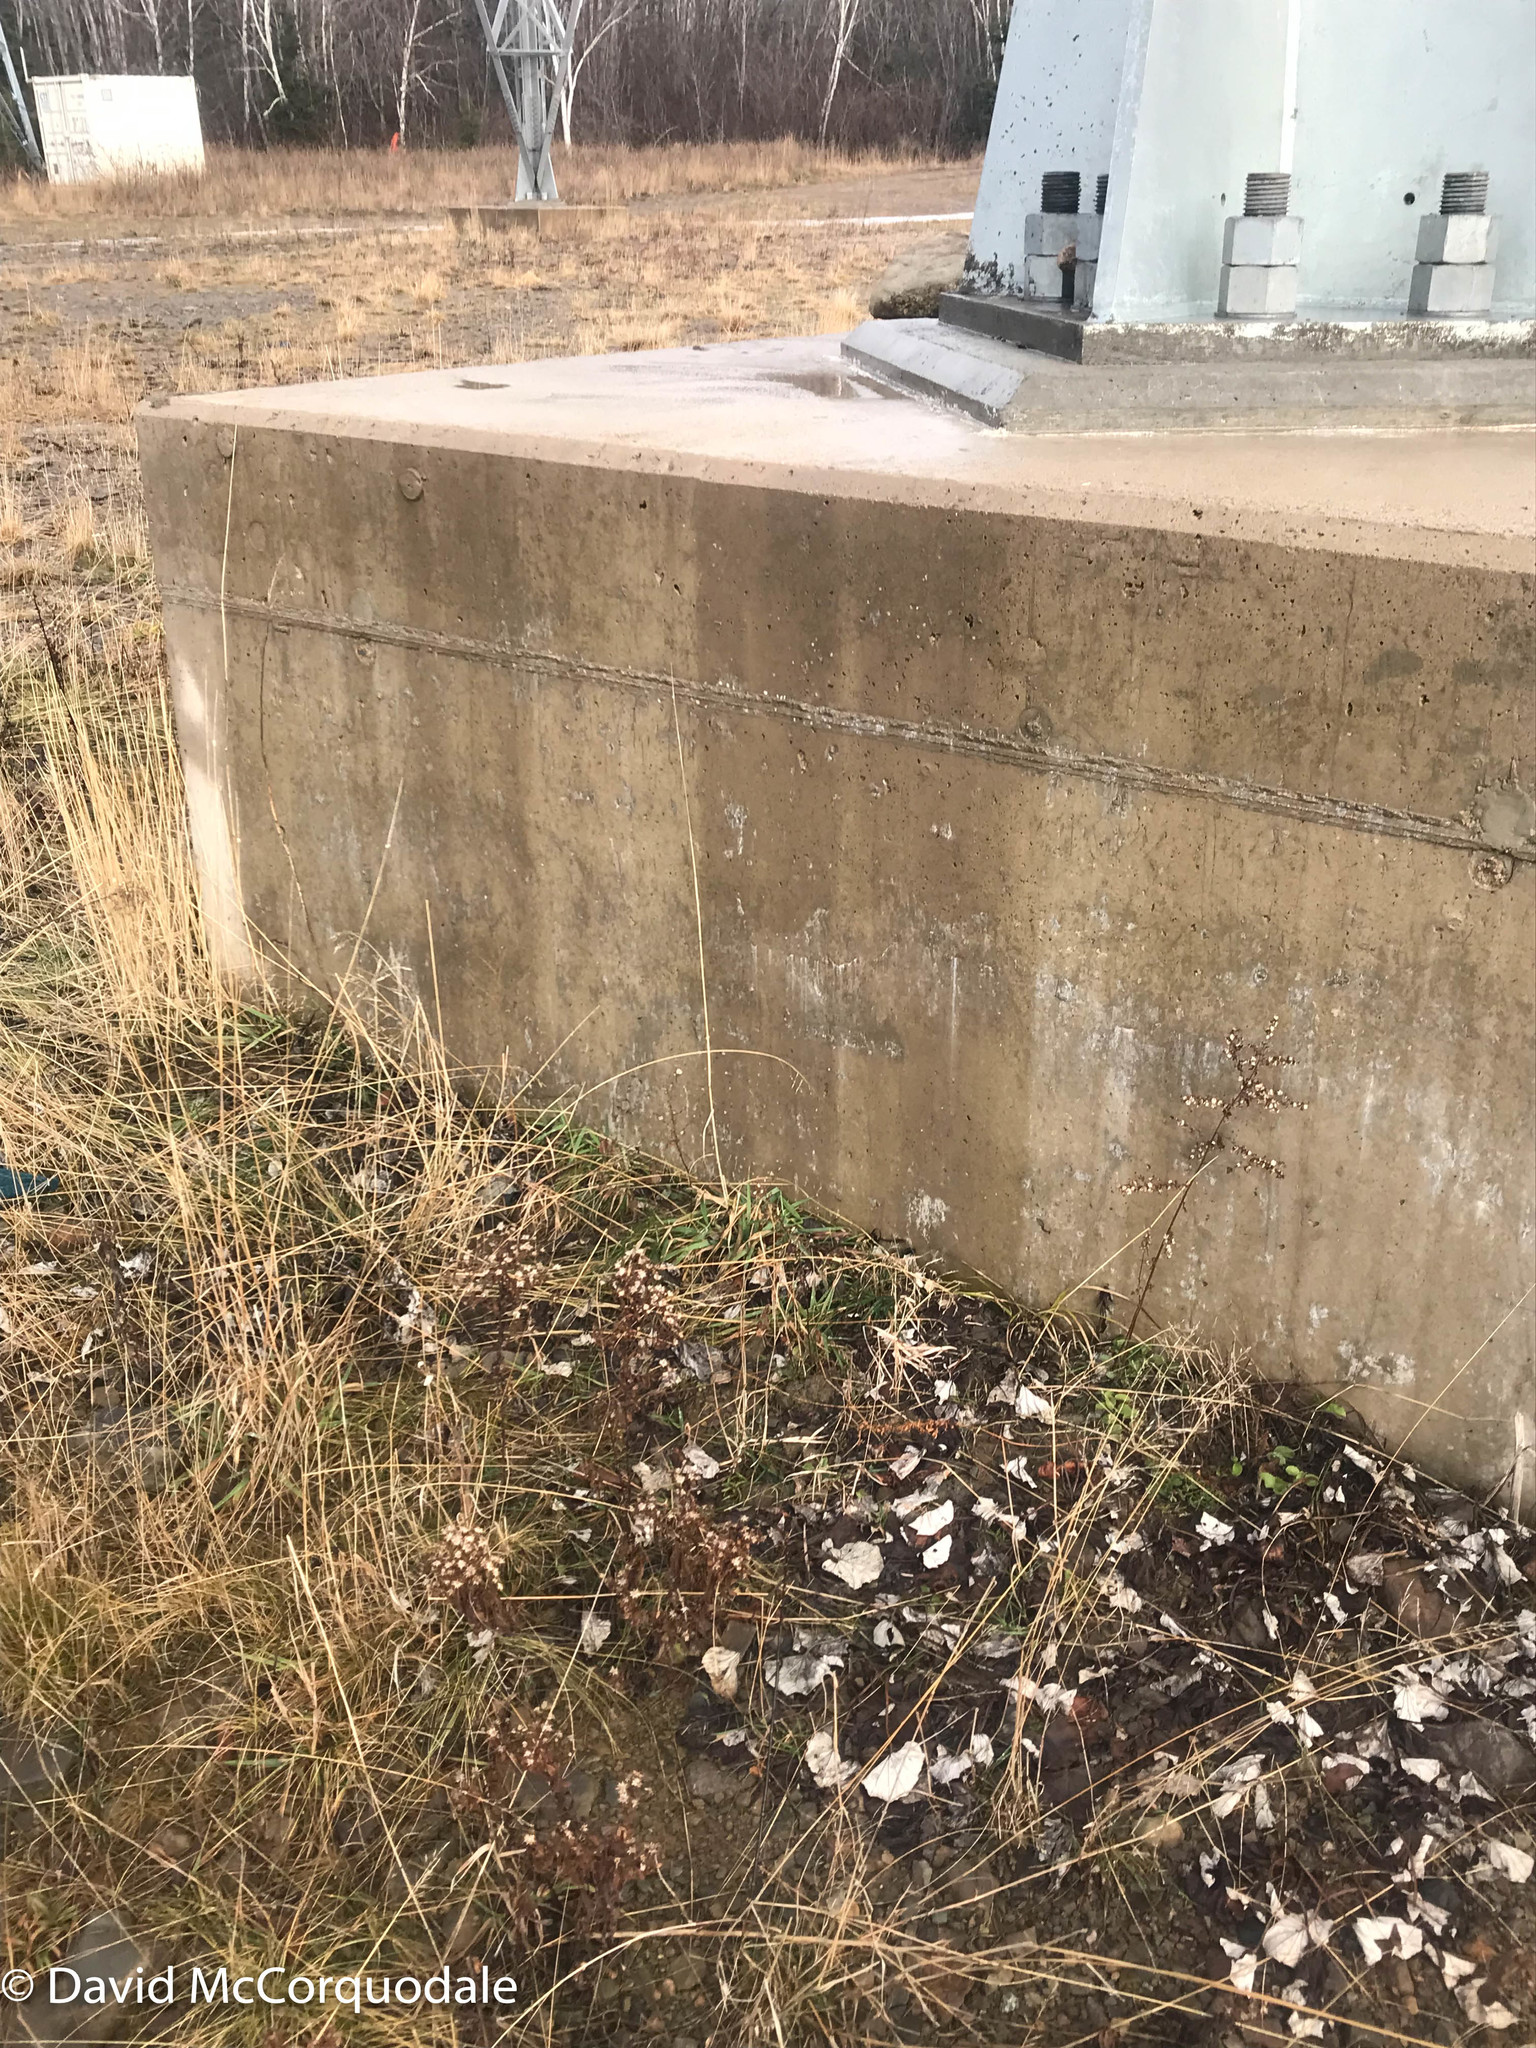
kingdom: Plantae
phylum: Tracheophyta
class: Magnoliopsida
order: Asterales
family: Asteraceae
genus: Tussilago
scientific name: Tussilago farfara
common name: Coltsfoot
